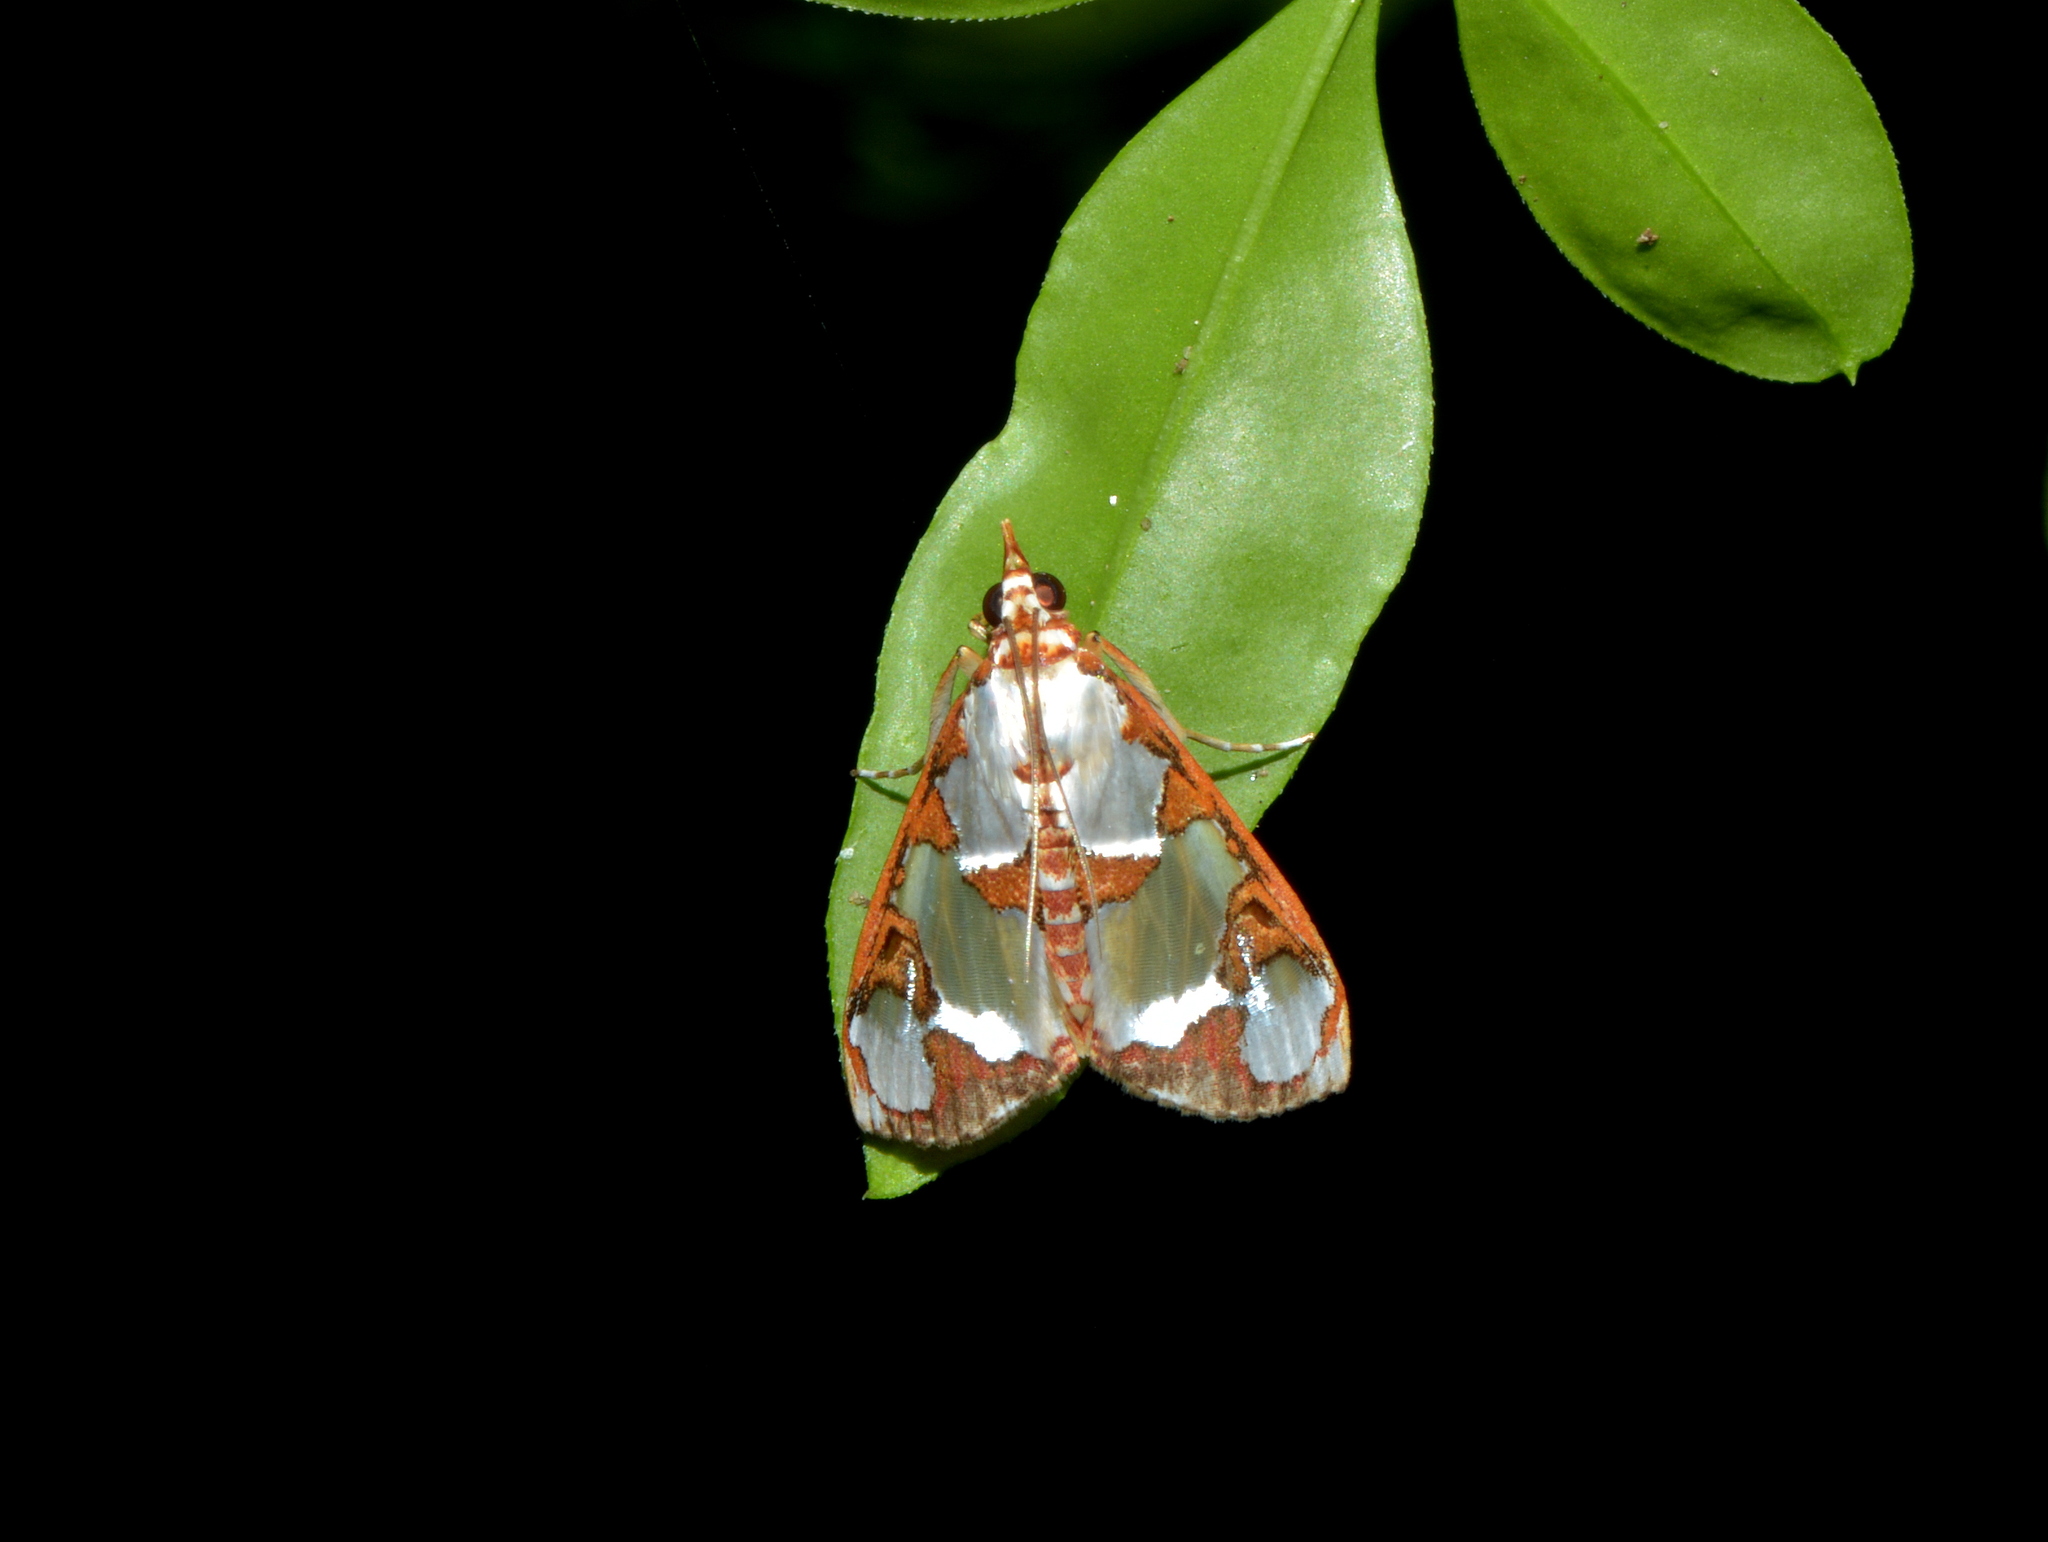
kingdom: Animalia
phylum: Arthropoda
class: Insecta
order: Lepidoptera
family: Crambidae
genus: Argyrarcha
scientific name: Argyrarcha margarita
